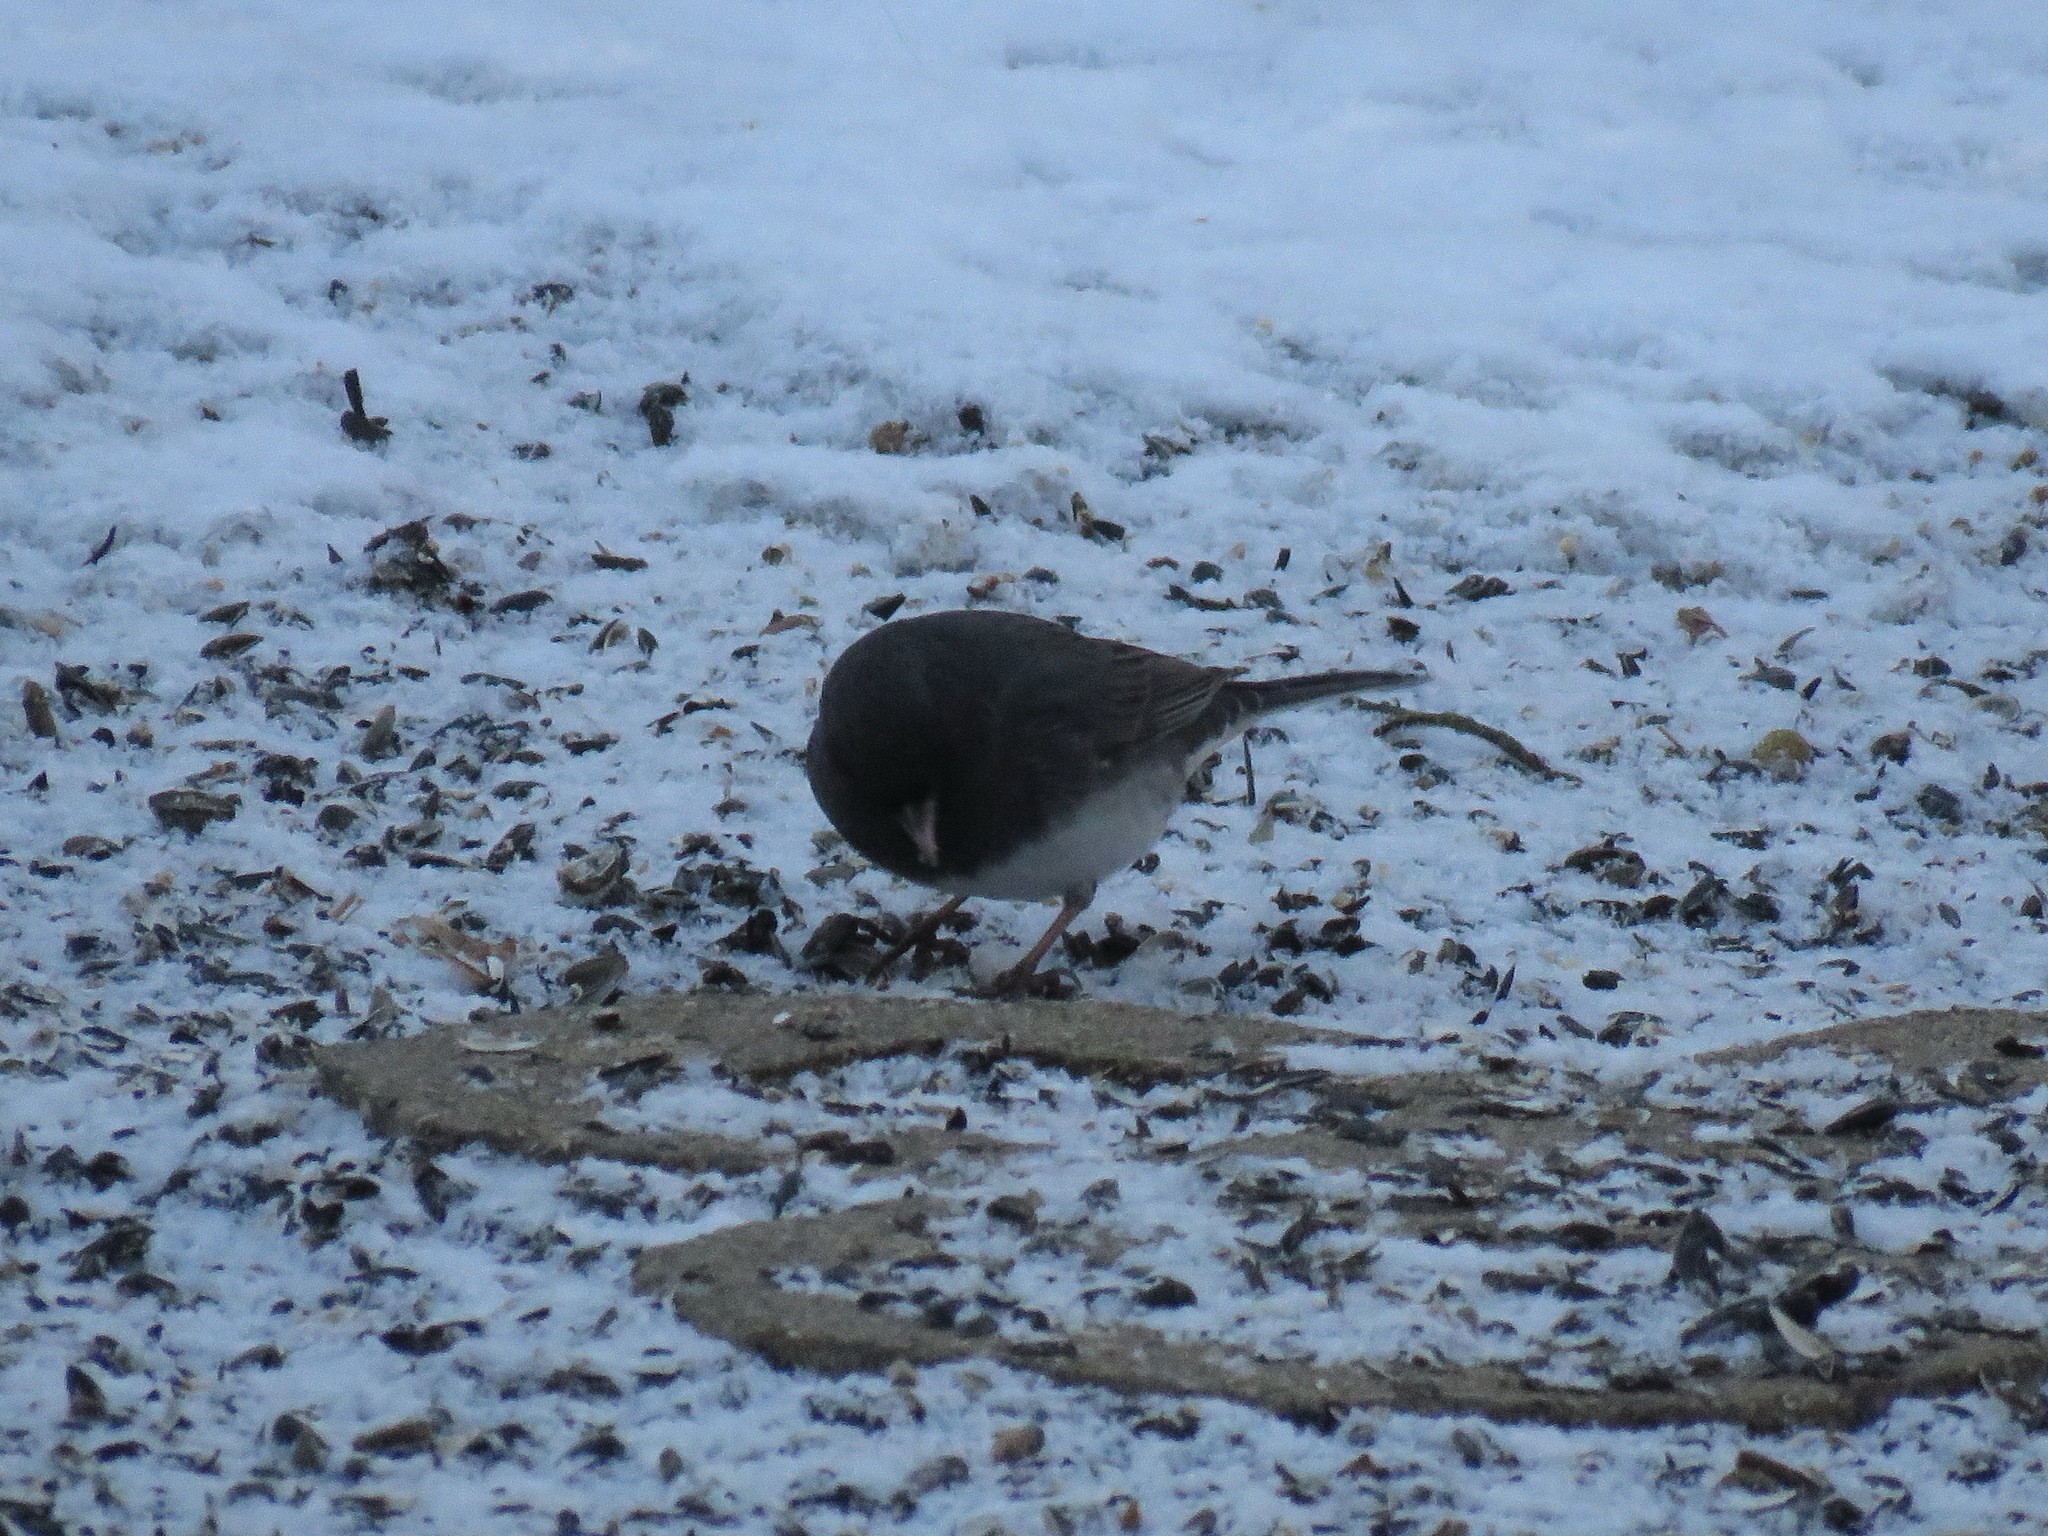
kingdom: Animalia
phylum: Chordata
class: Aves
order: Passeriformes
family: Passerellidae
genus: Junco
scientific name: Junco hyemalis
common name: Dark-eyed junco
